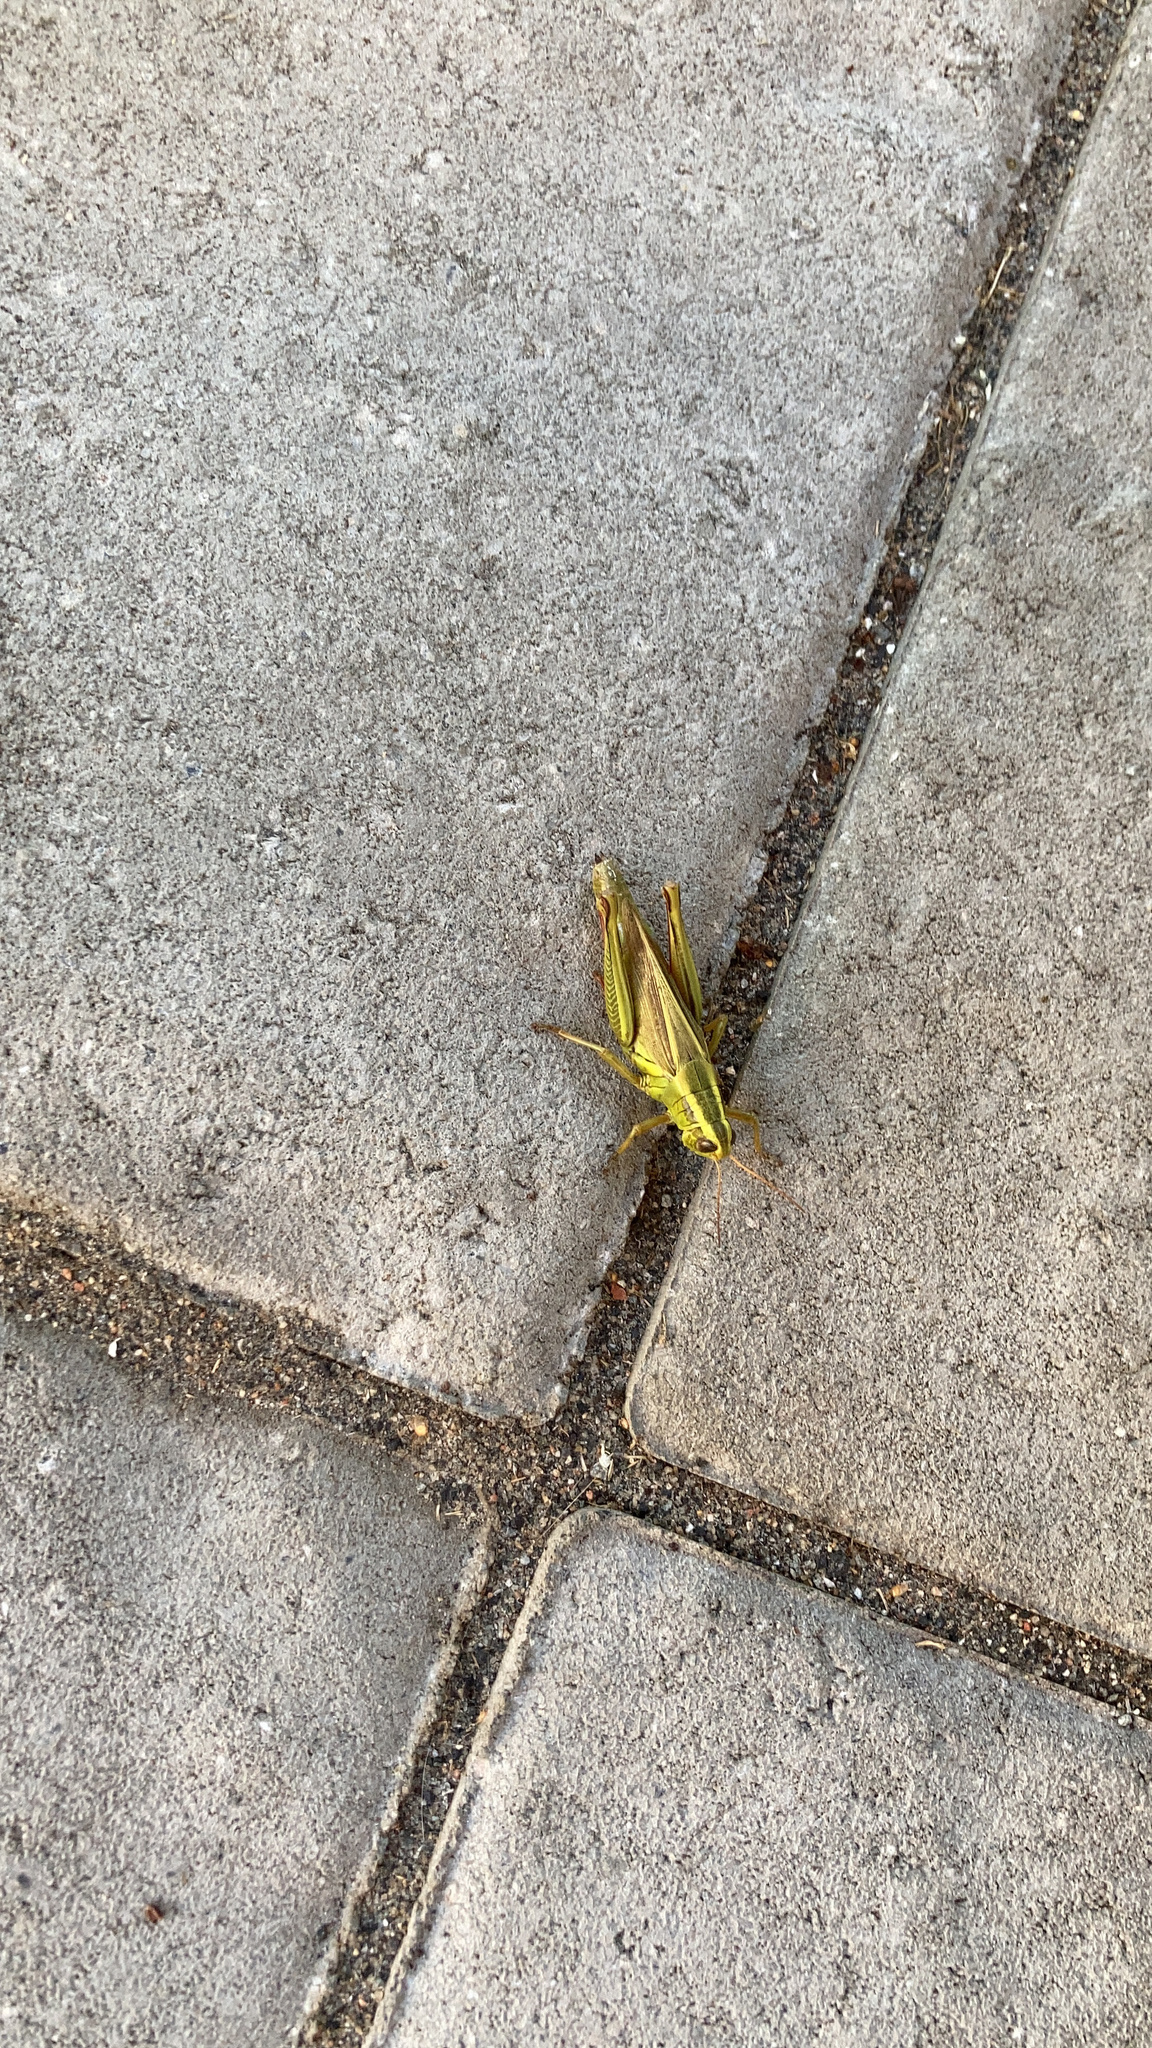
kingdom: Animalia
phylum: Arthropoda
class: Insecta
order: Orthoptera
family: Acrididae
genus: Melanoplus
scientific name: Melanoplus bivittatus
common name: Two-striped grasshopper
